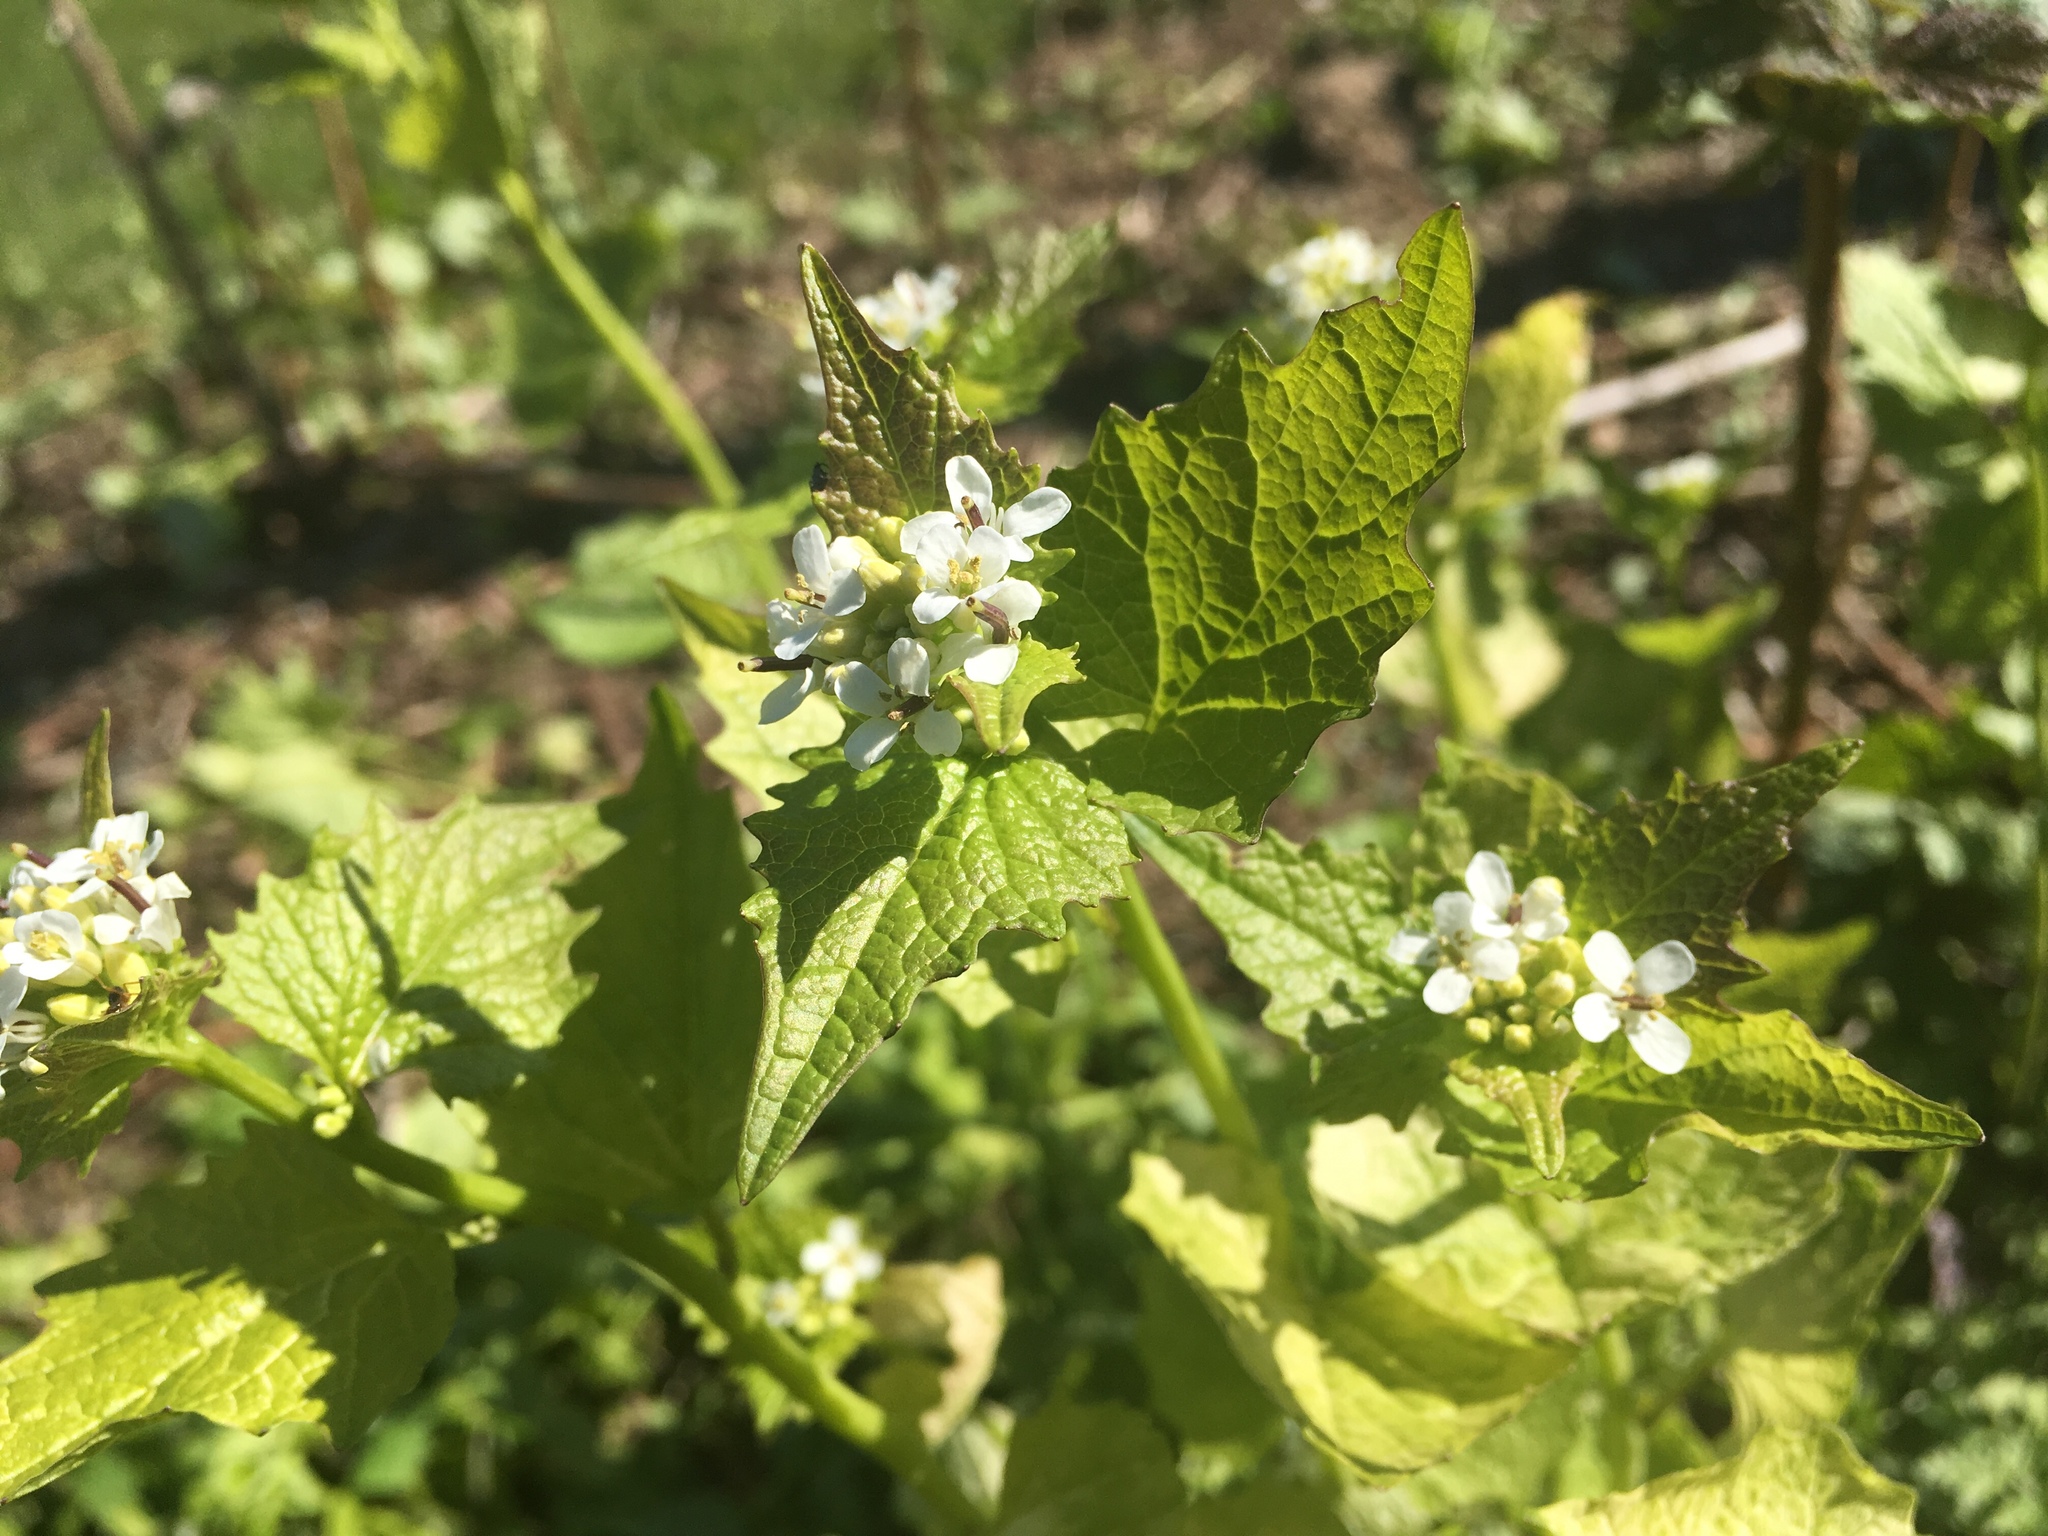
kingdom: Plantae
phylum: Tracheophyta
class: Magnoliopsida
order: Brassicales
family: Brassicaceae
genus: Alliaria
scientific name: Alliaria petiolata
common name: Garlic mustard
